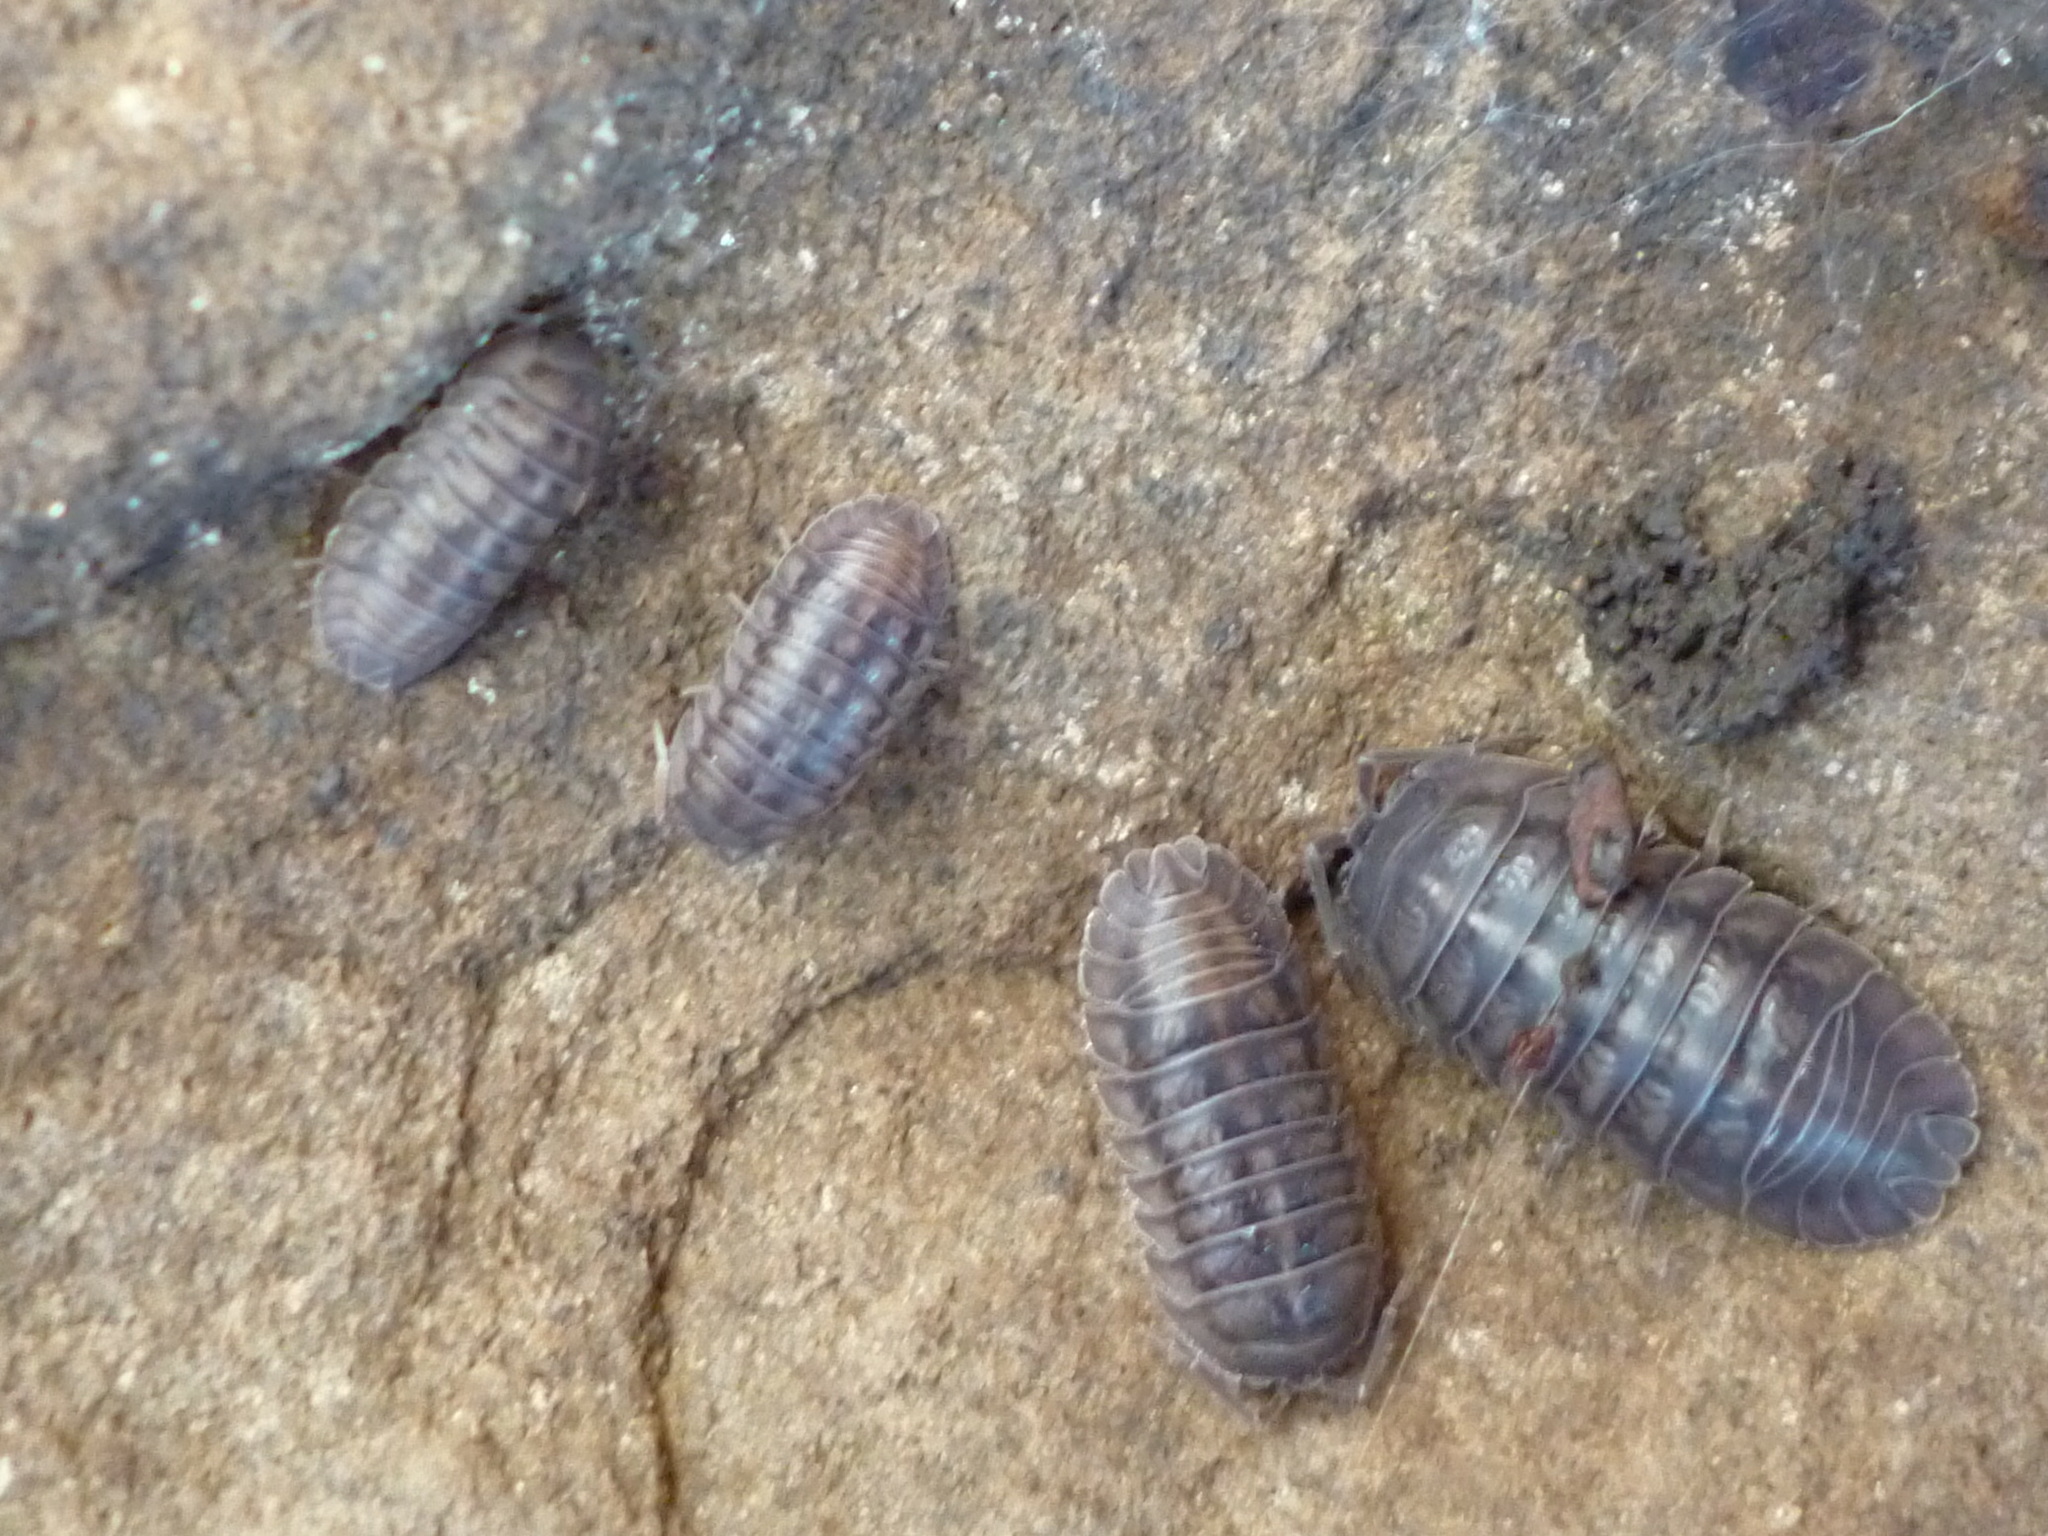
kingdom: Animalia
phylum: Arthropoda
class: Malacostraca
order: Isopoda
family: Armadillidiidae
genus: Armadillidium
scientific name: Armadillidium nasatum
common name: Isopod
